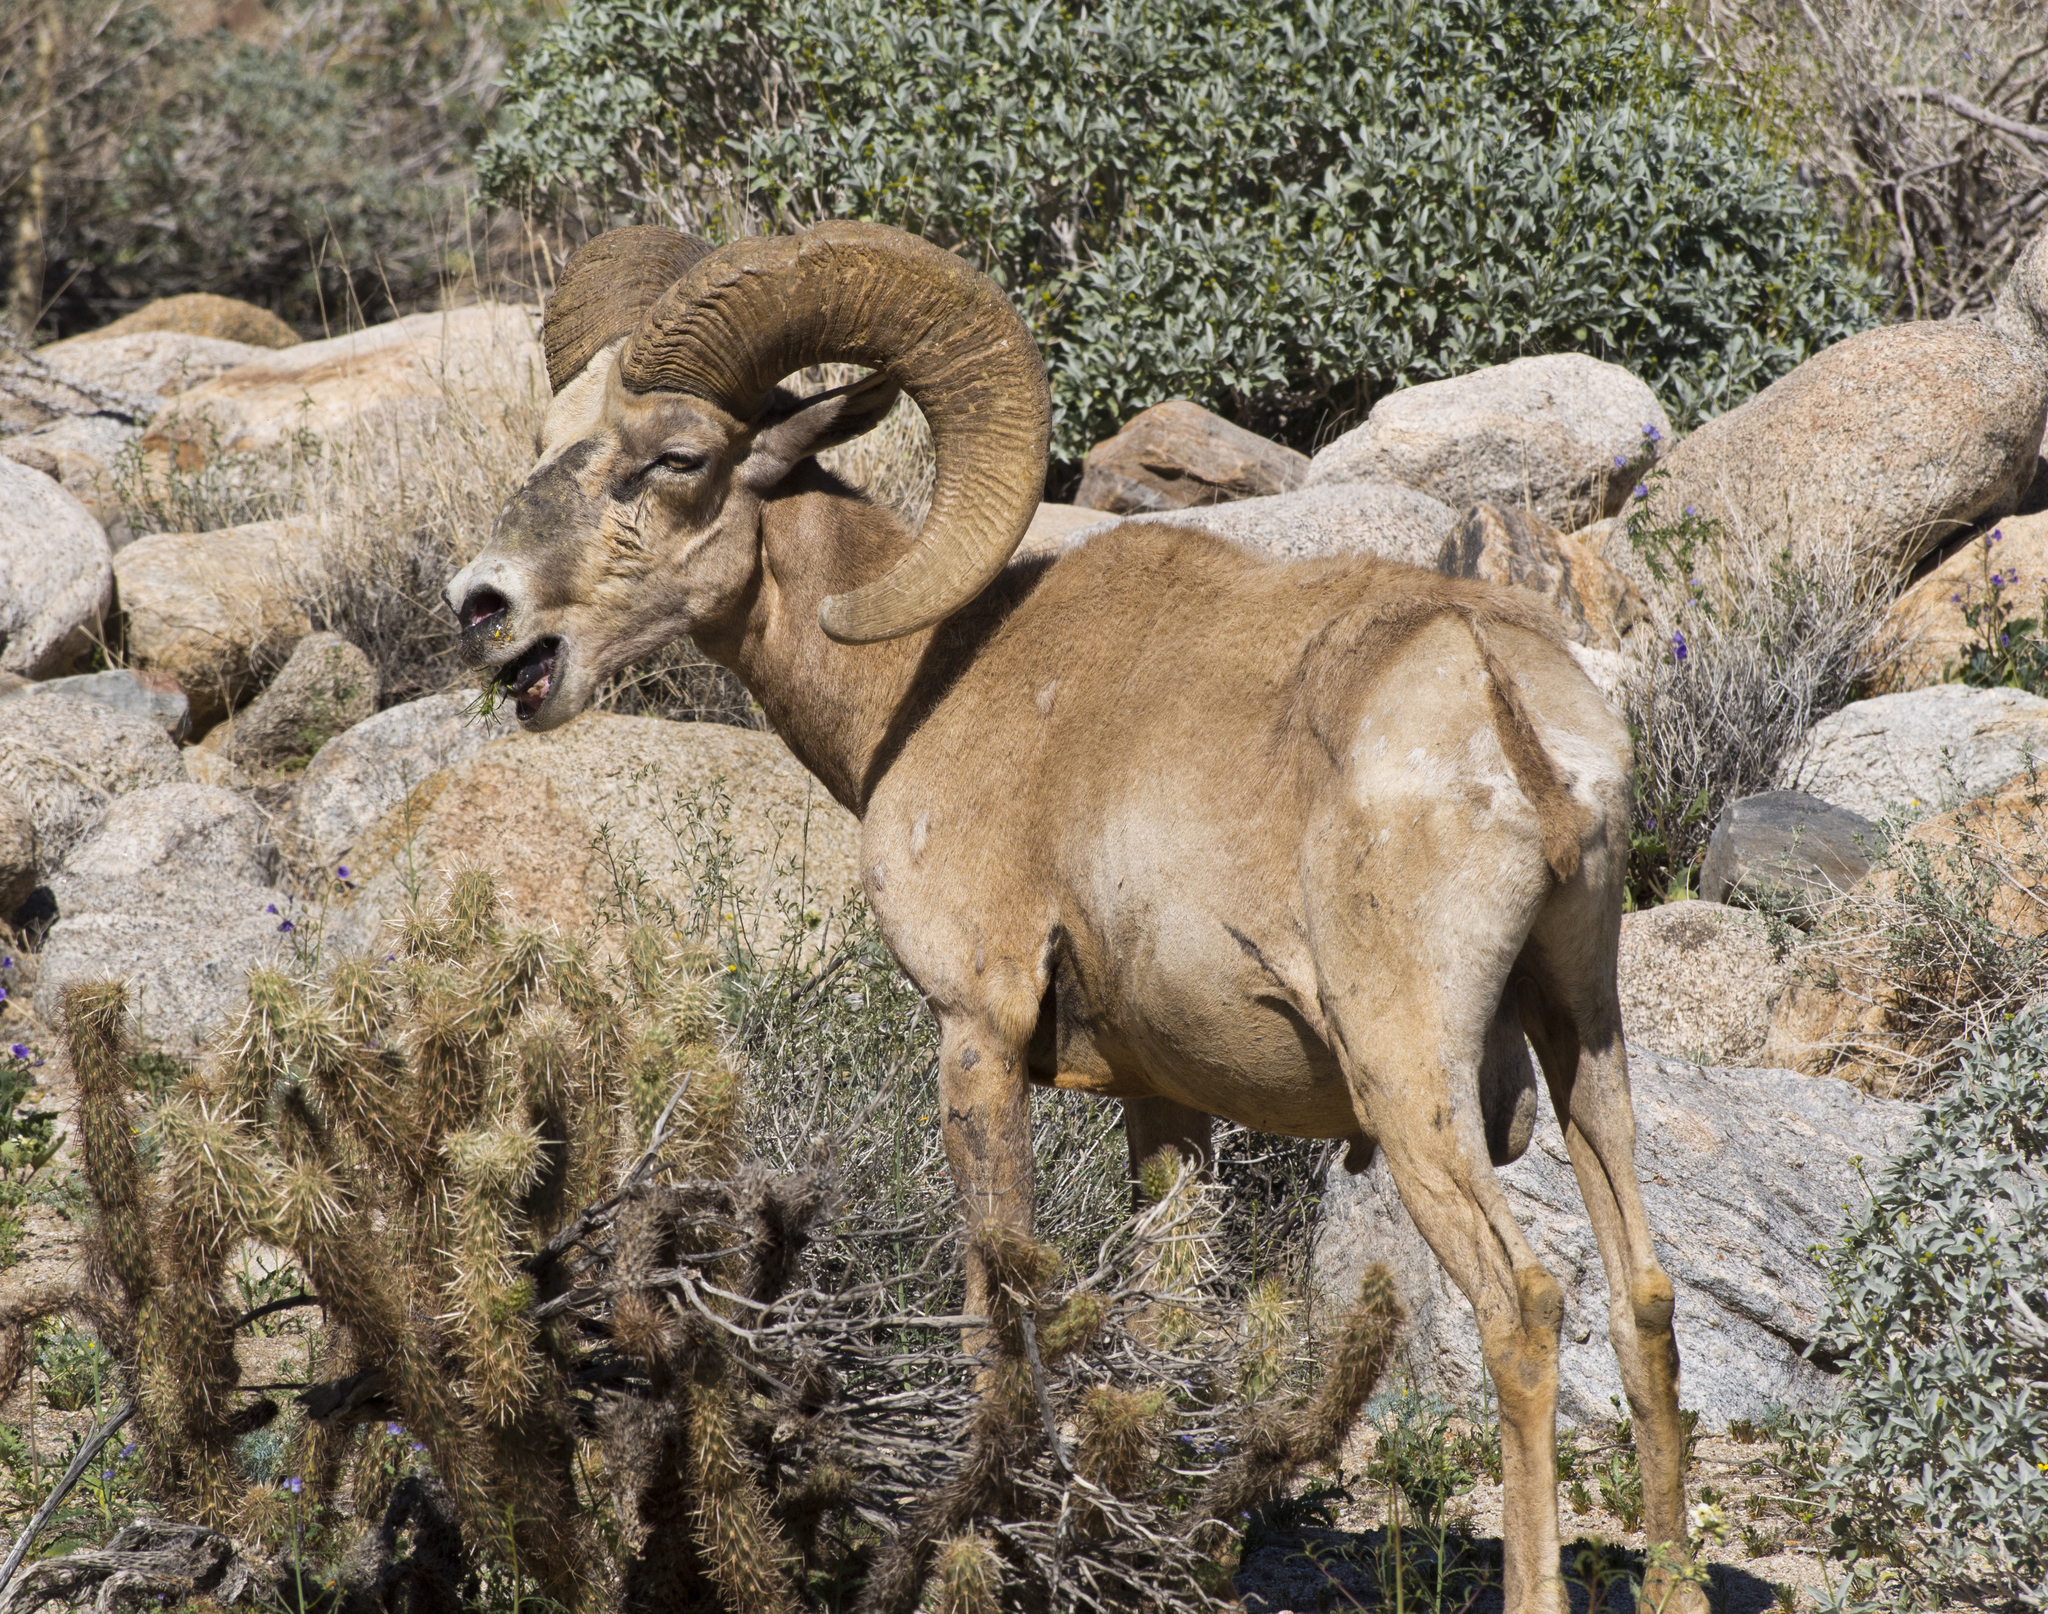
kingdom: Animalia
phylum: Chordata
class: Mammalia
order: Artiodactyla
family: Bovidae
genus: Ovis
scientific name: Ovis canadensis
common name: Bighorn sheep
